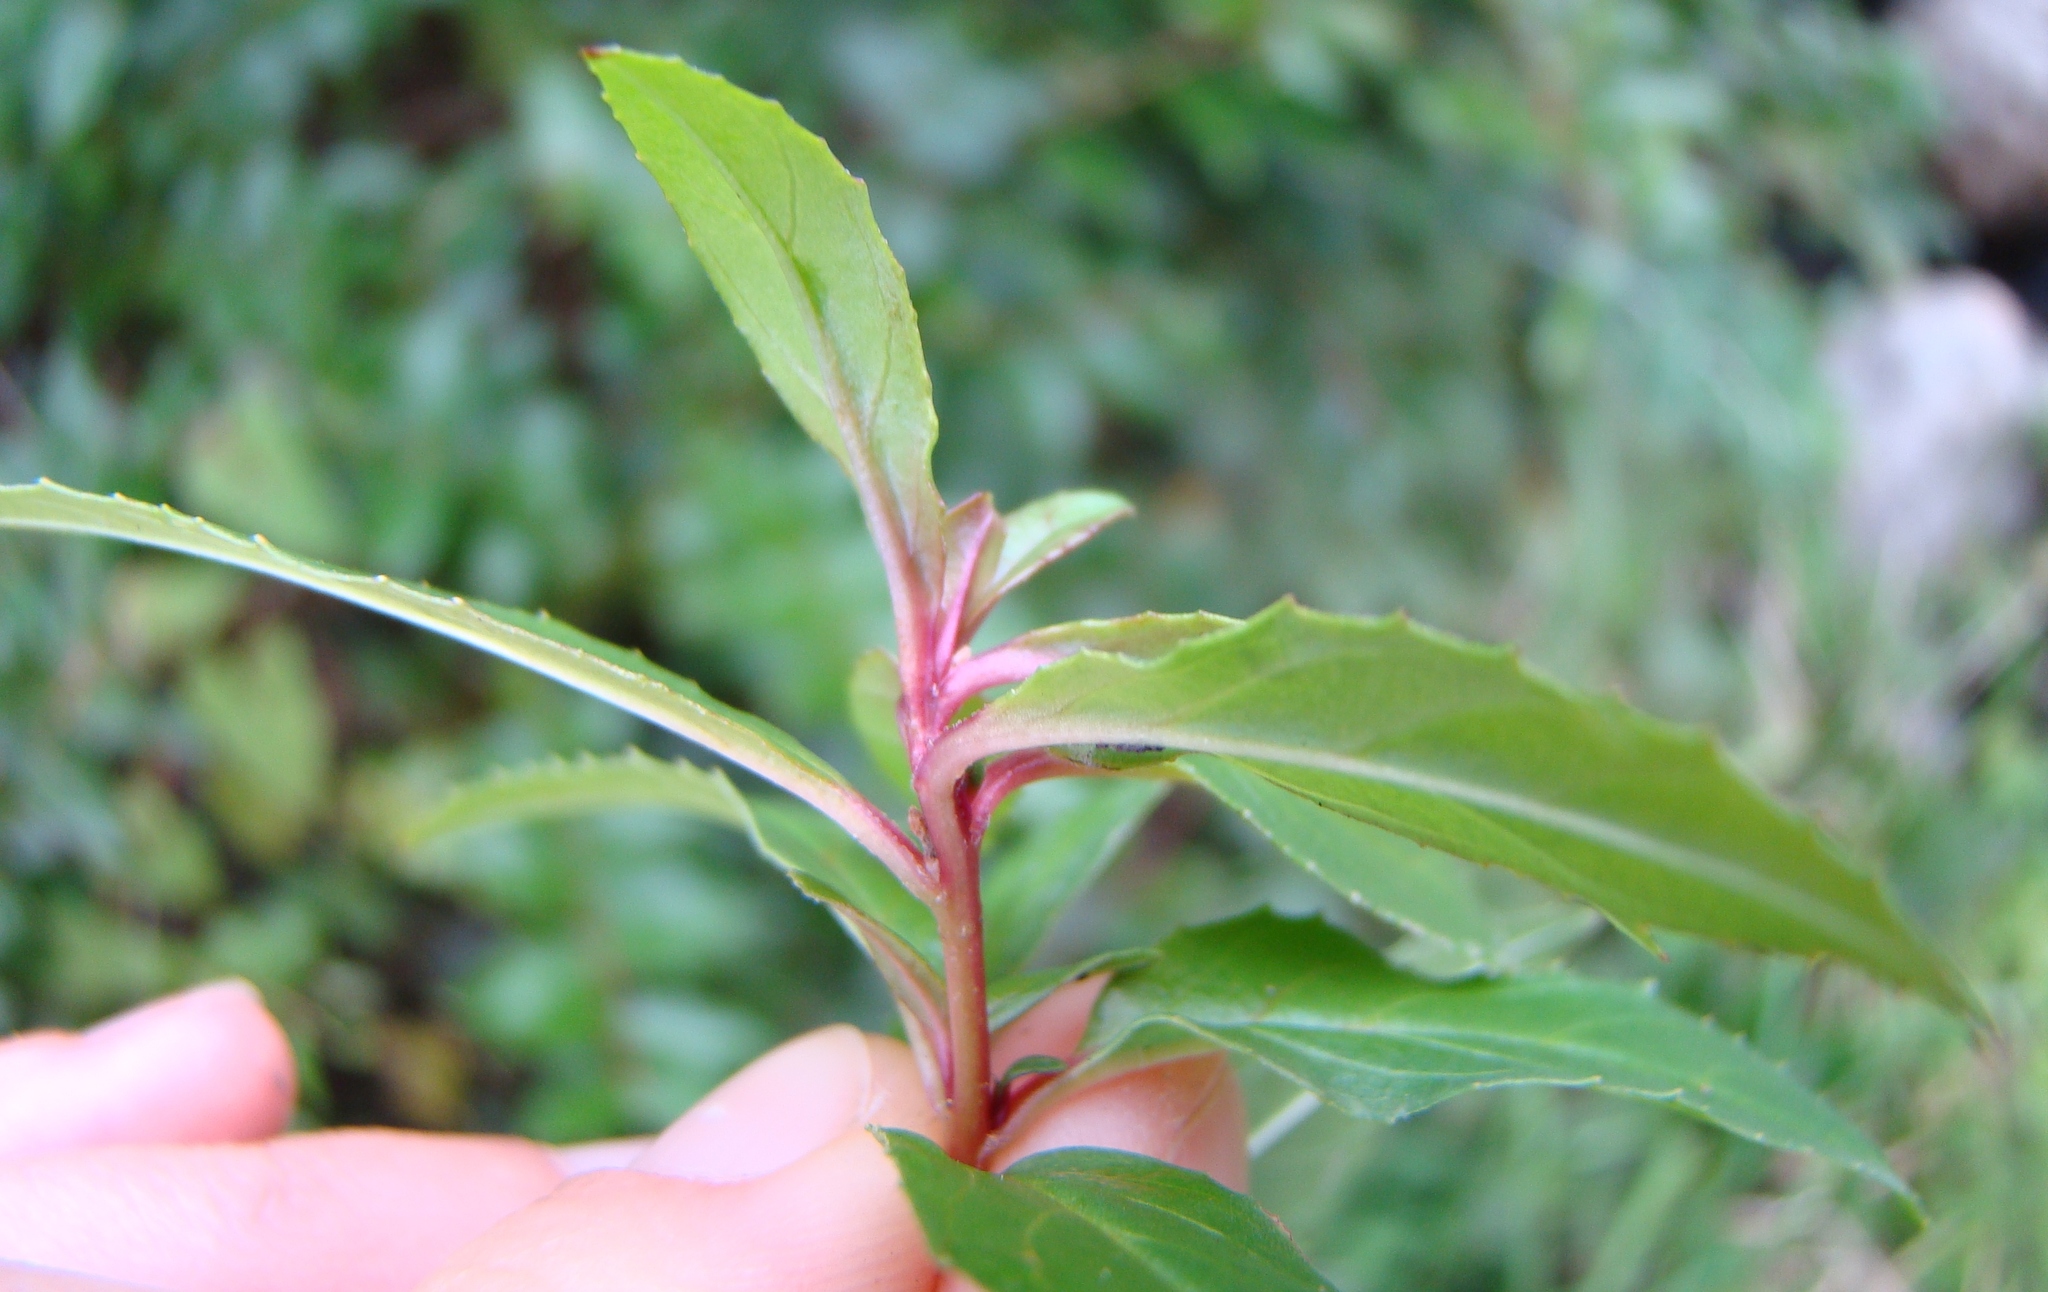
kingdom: Plantae
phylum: Tracheophyta
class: Magnoliopsida
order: Myrtales
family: Onagraceae
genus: Epilobium
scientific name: Epilobium ciliatum
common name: American willowherb
